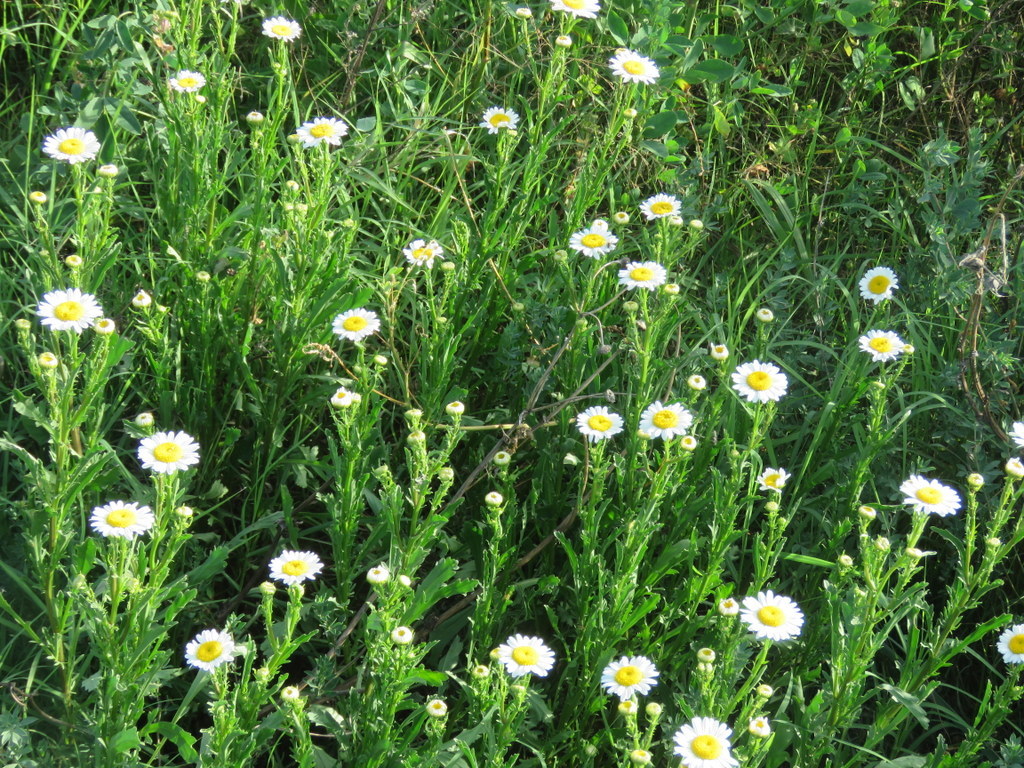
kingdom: Plantae
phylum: Tracheophyta
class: Magnoliopsida
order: Asterales
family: Asteraceae
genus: Leucanthemum
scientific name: Leucanthemum vulgare
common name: Oxeye daisy
